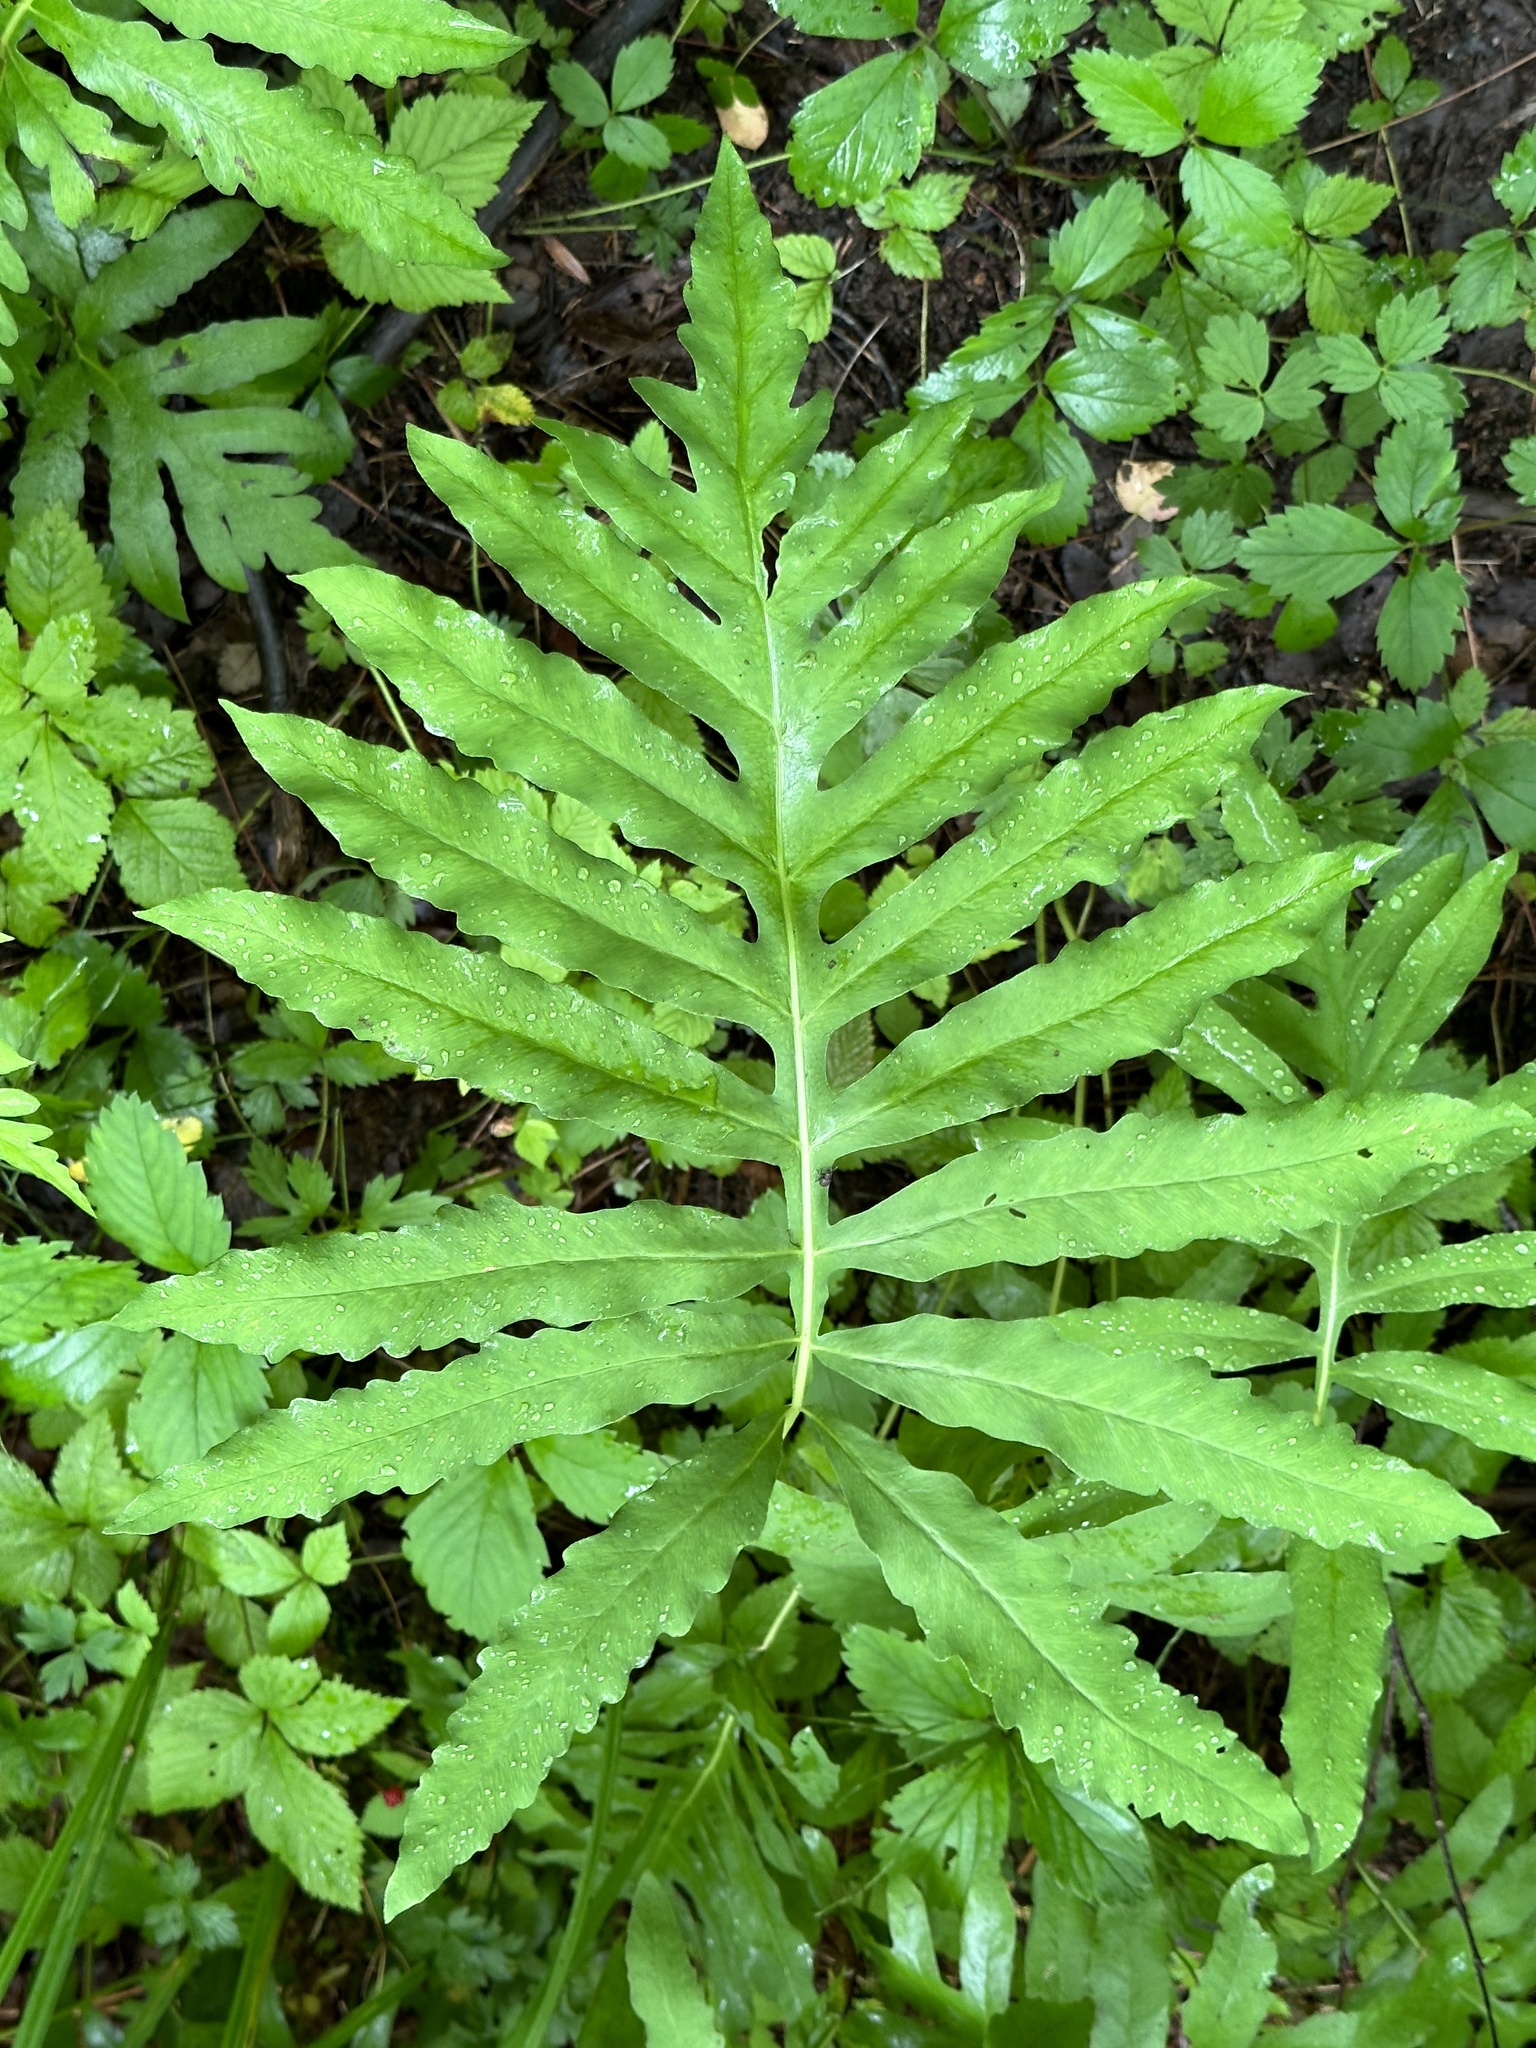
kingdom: Plantae
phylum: Tracheophyta
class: Polypodiopsida
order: Polypodiales
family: Onocleaceae
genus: Onoclea
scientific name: Onoclea sensibilis
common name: Sensitive fern
